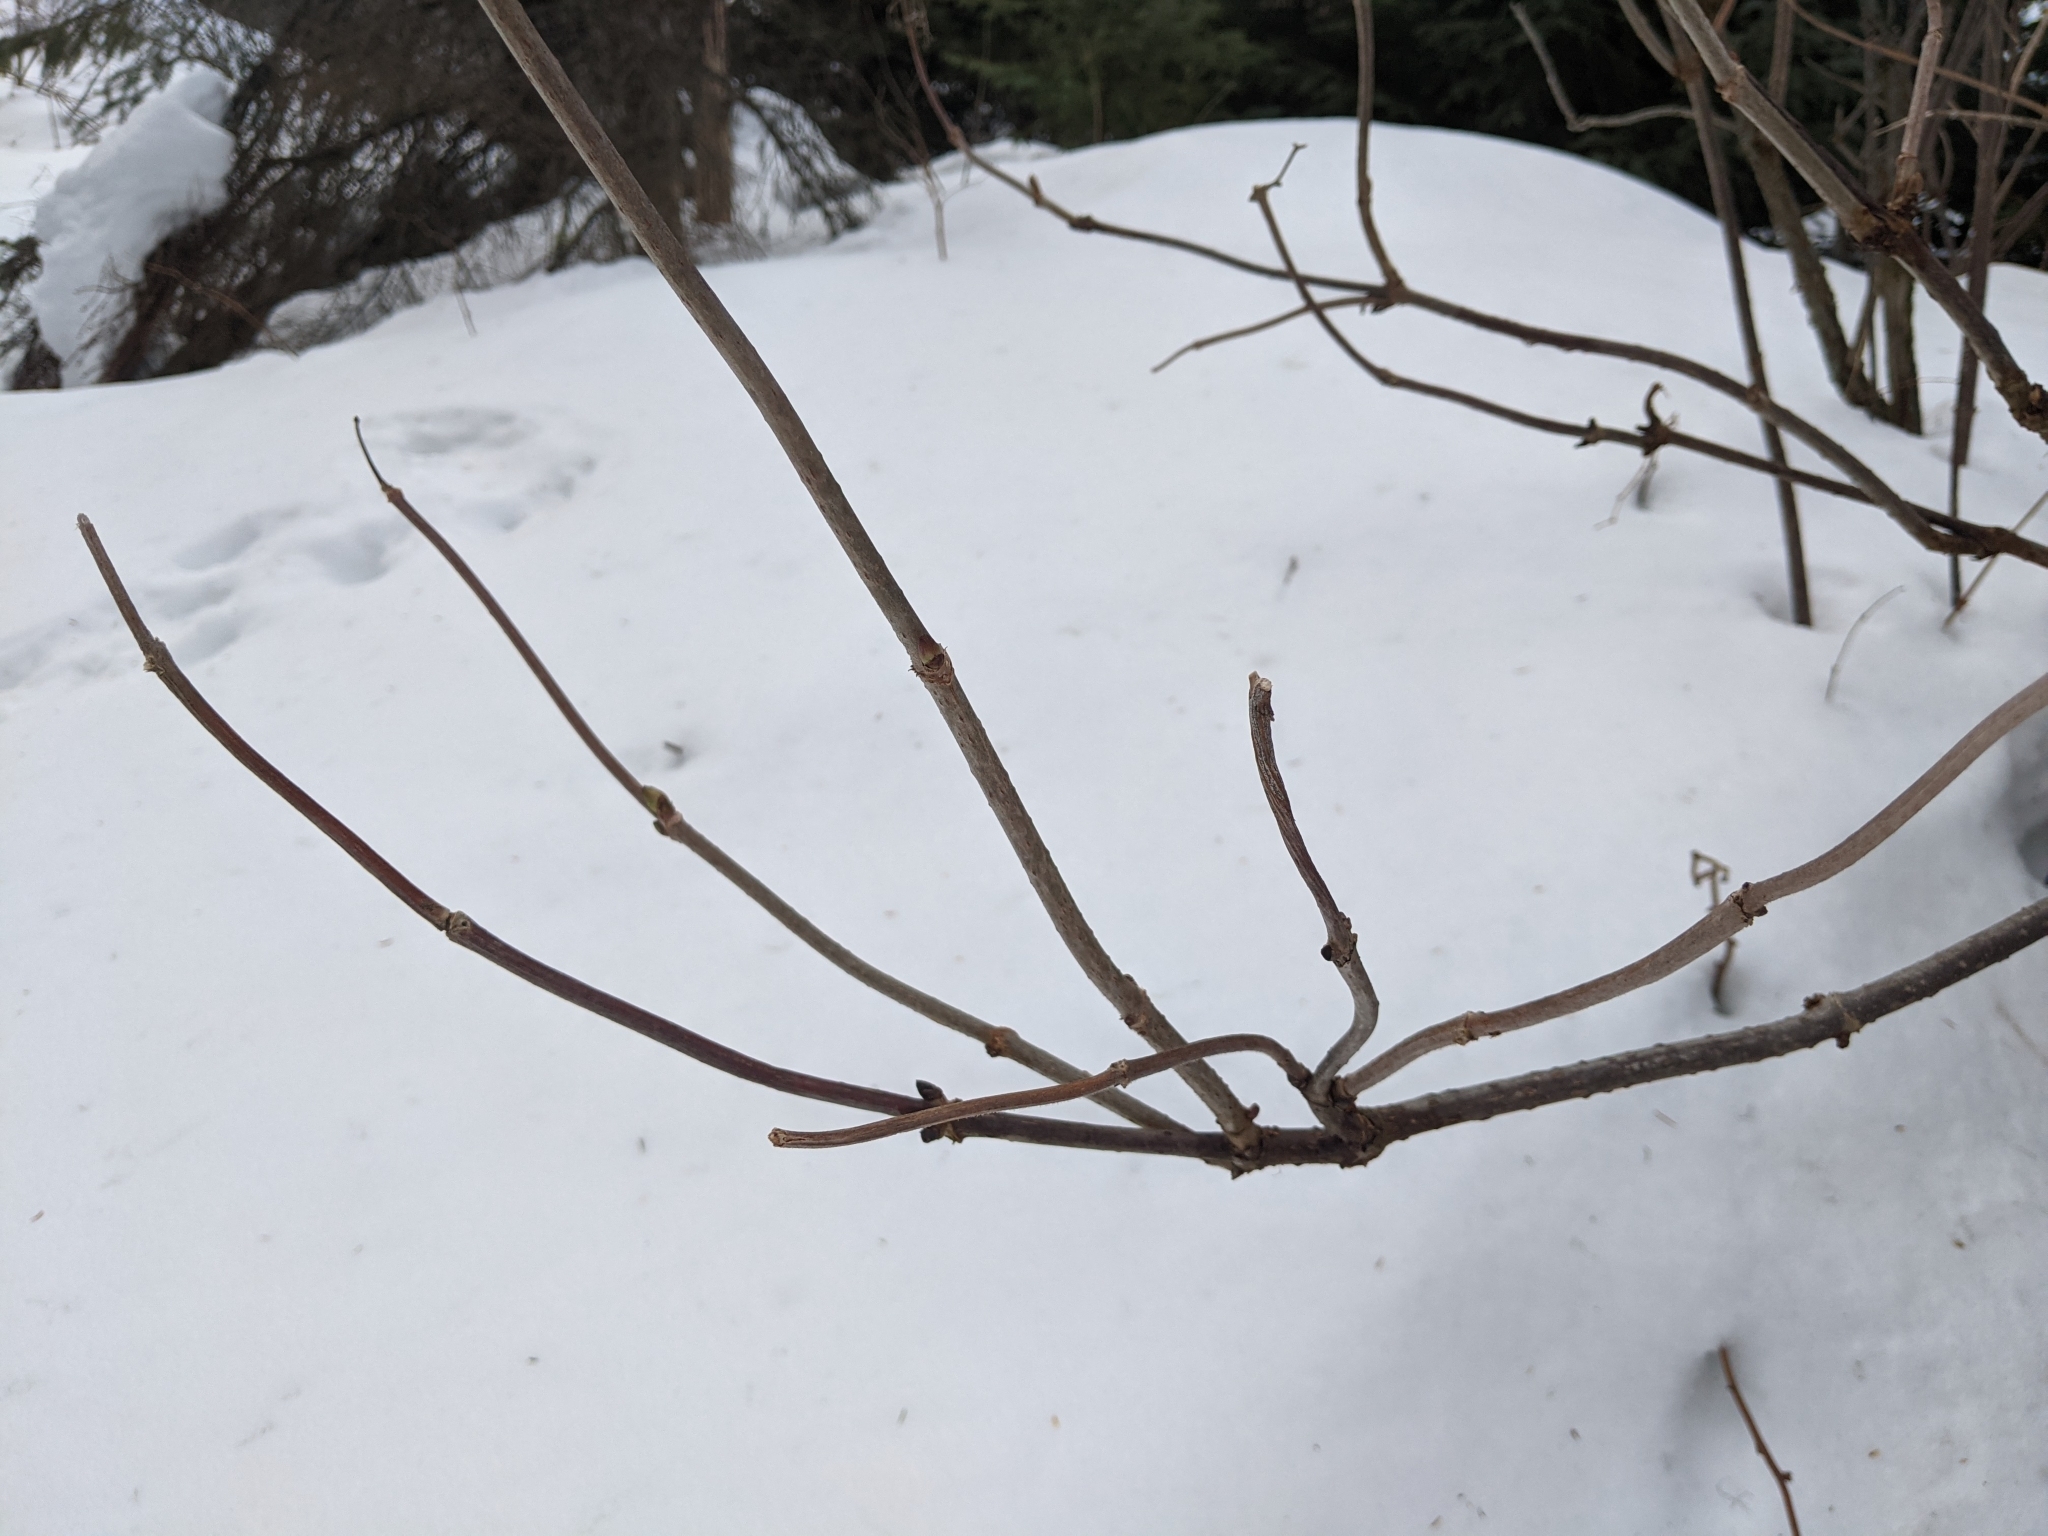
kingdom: Plantae
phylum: Tracheophyta
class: Magnoliopsida
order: Dipsacales
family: Viburnaceae
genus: Sambucus
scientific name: Sambucus racemosa
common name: Red-berried elder
